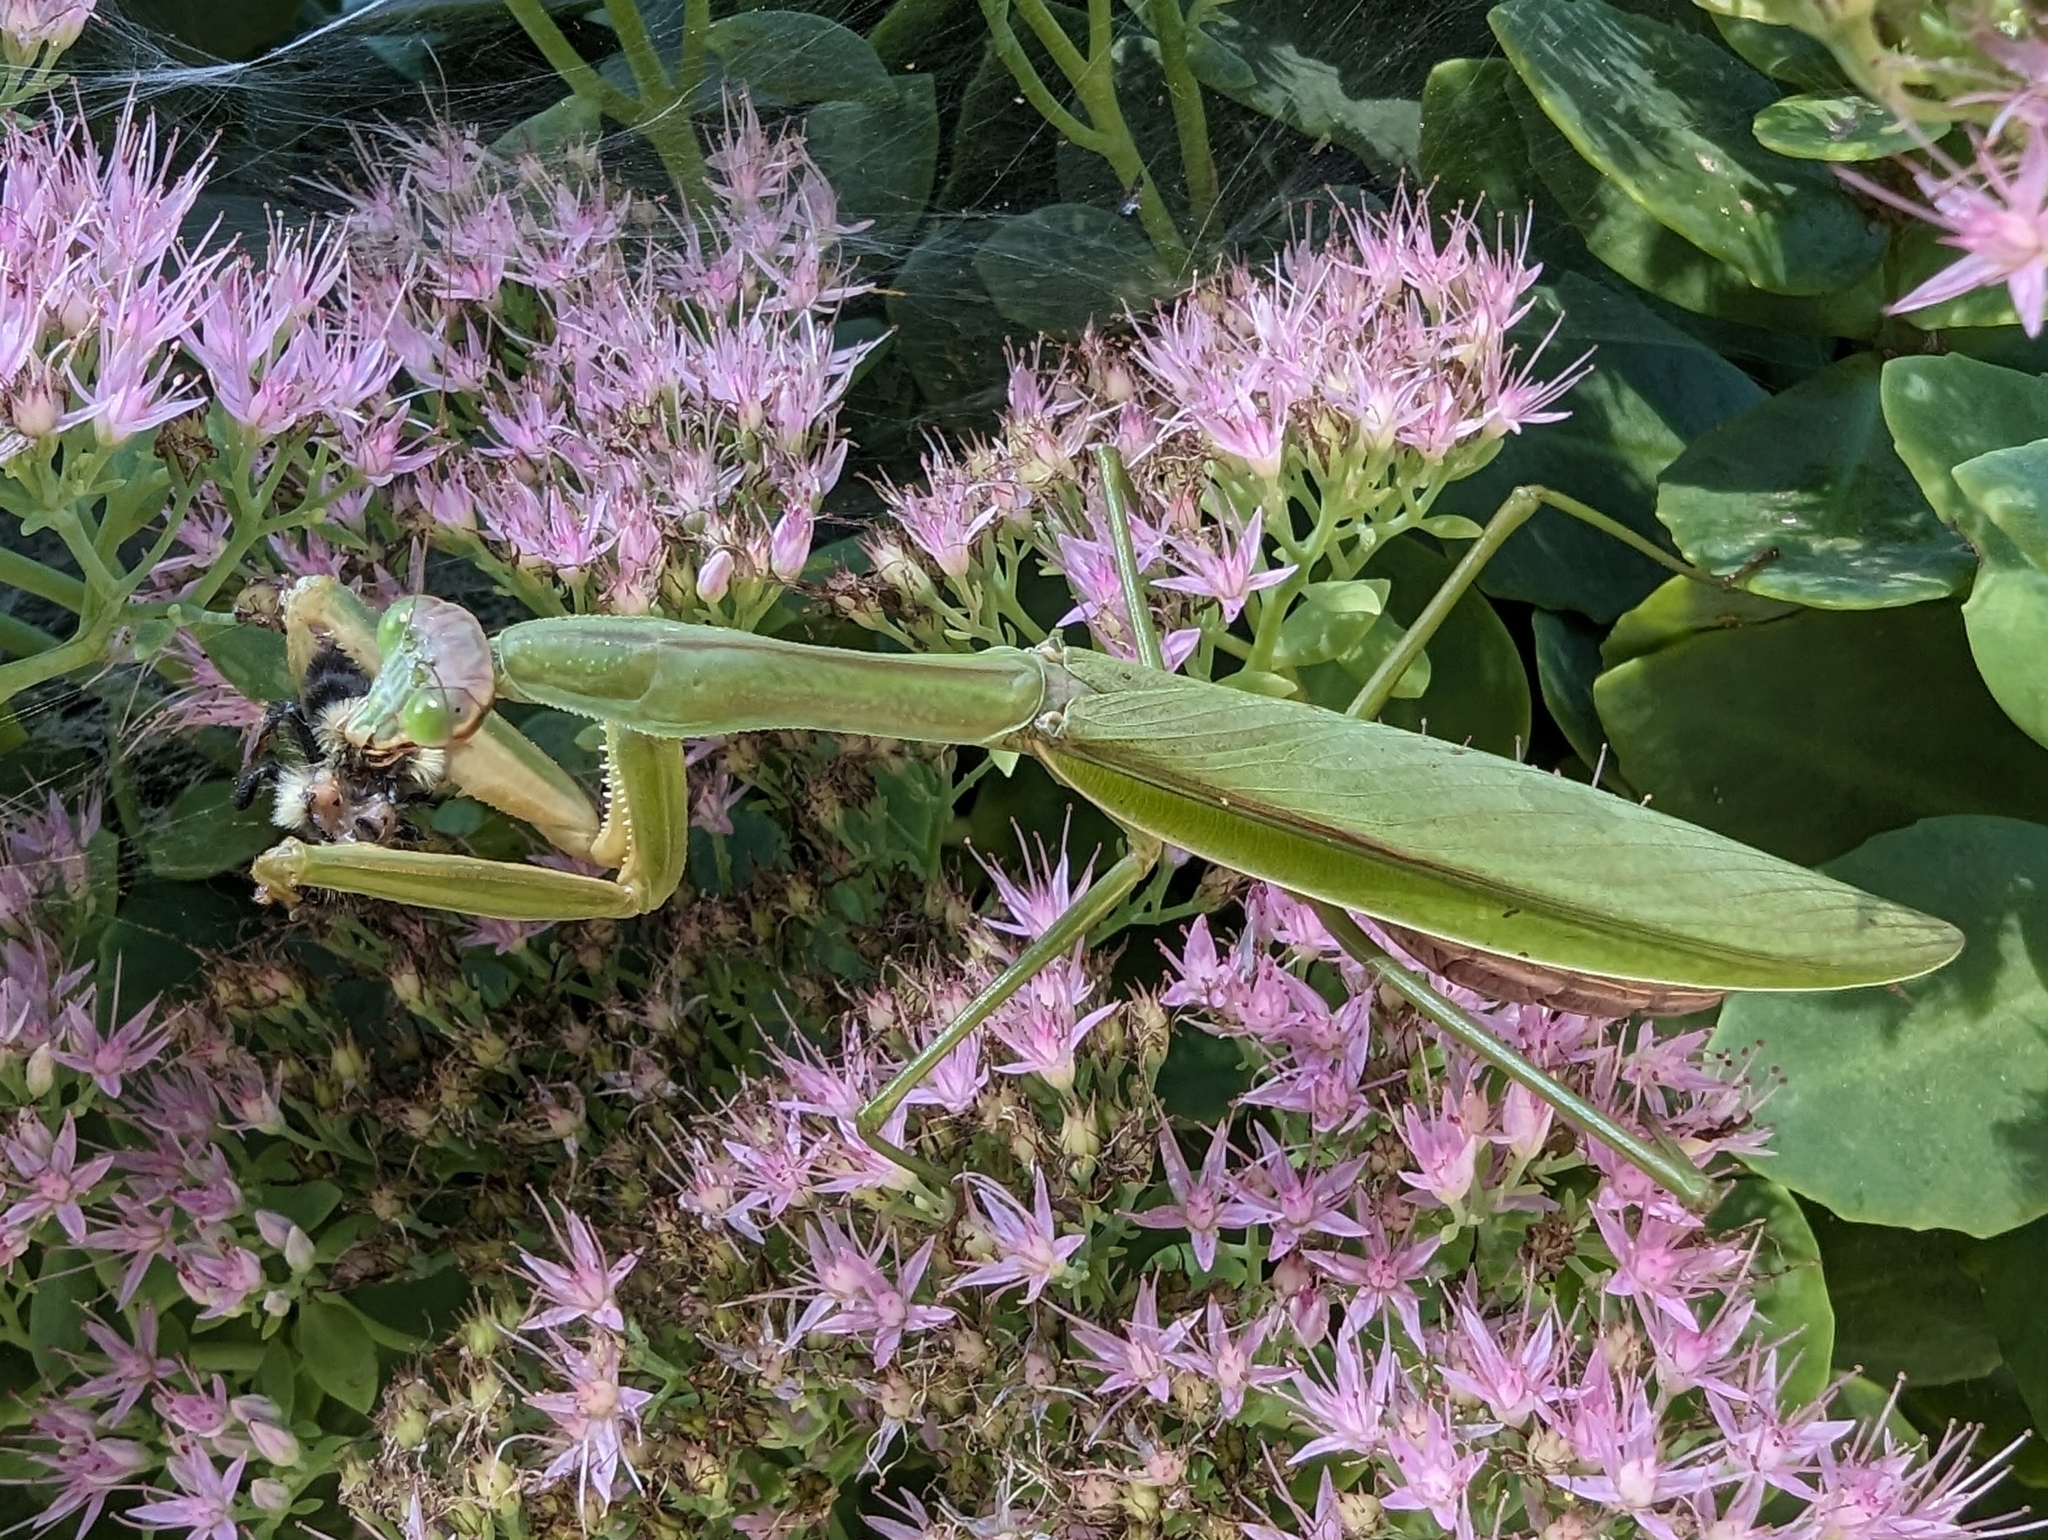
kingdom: Animalia
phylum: Arthropoda
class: Insecta
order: Mantodea
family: Mantidae
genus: Tenodera
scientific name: Tenodera sinensis
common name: Chinese mantis
